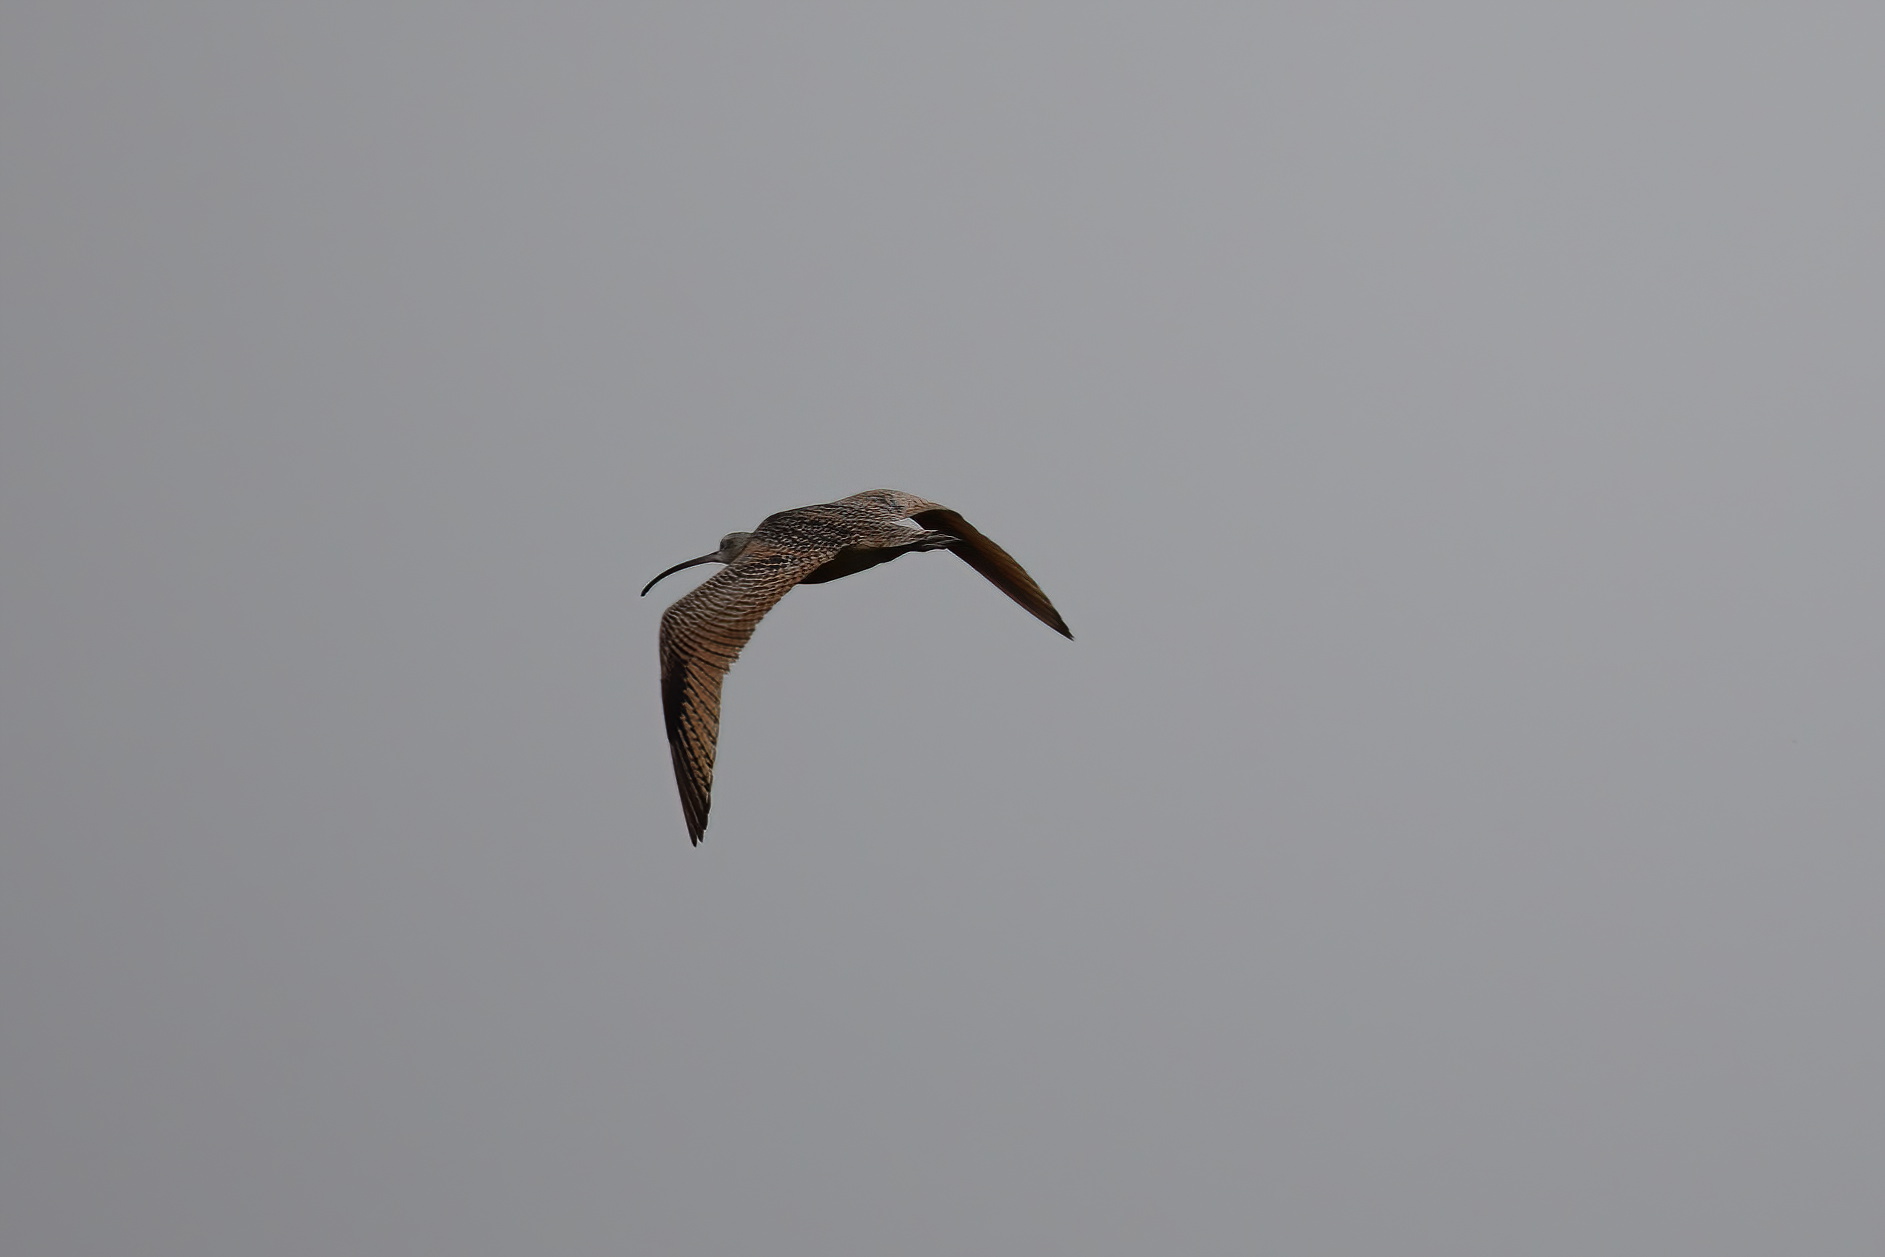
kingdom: Animalia
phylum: Chordata
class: Aves
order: Charadriiformes
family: Scolopacidae
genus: Numenius
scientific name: Numenius americanus
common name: Long-billed curlew
